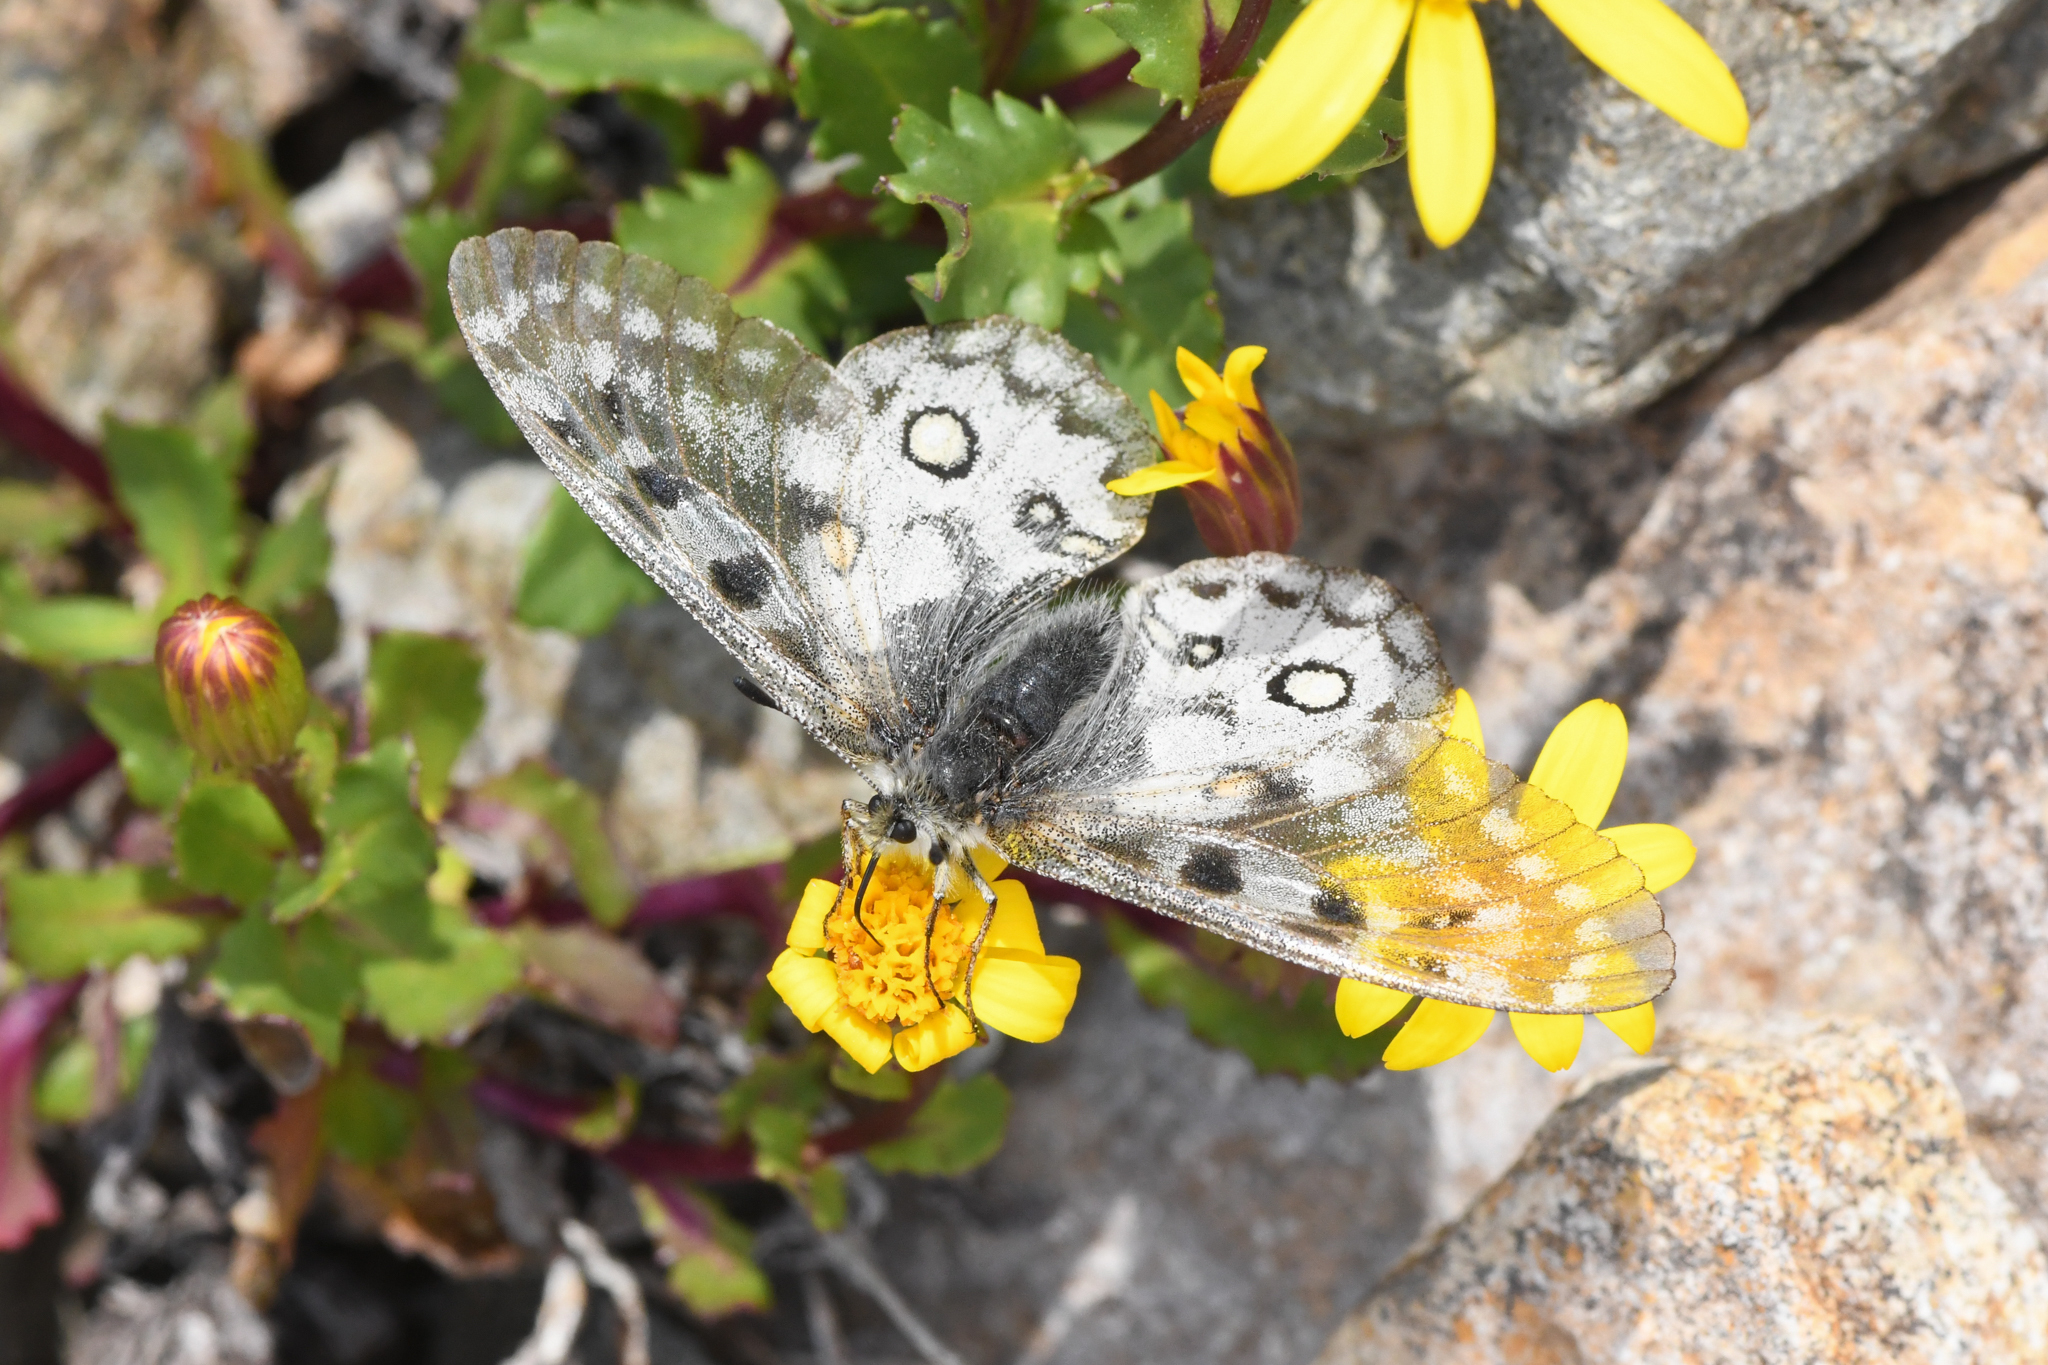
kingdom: Animalia
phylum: Arthropoda
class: Insecta
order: Lepidoptera
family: Papilionidae
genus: Parnassius
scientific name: Parnassius smintheus
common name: Mountain parnassian
